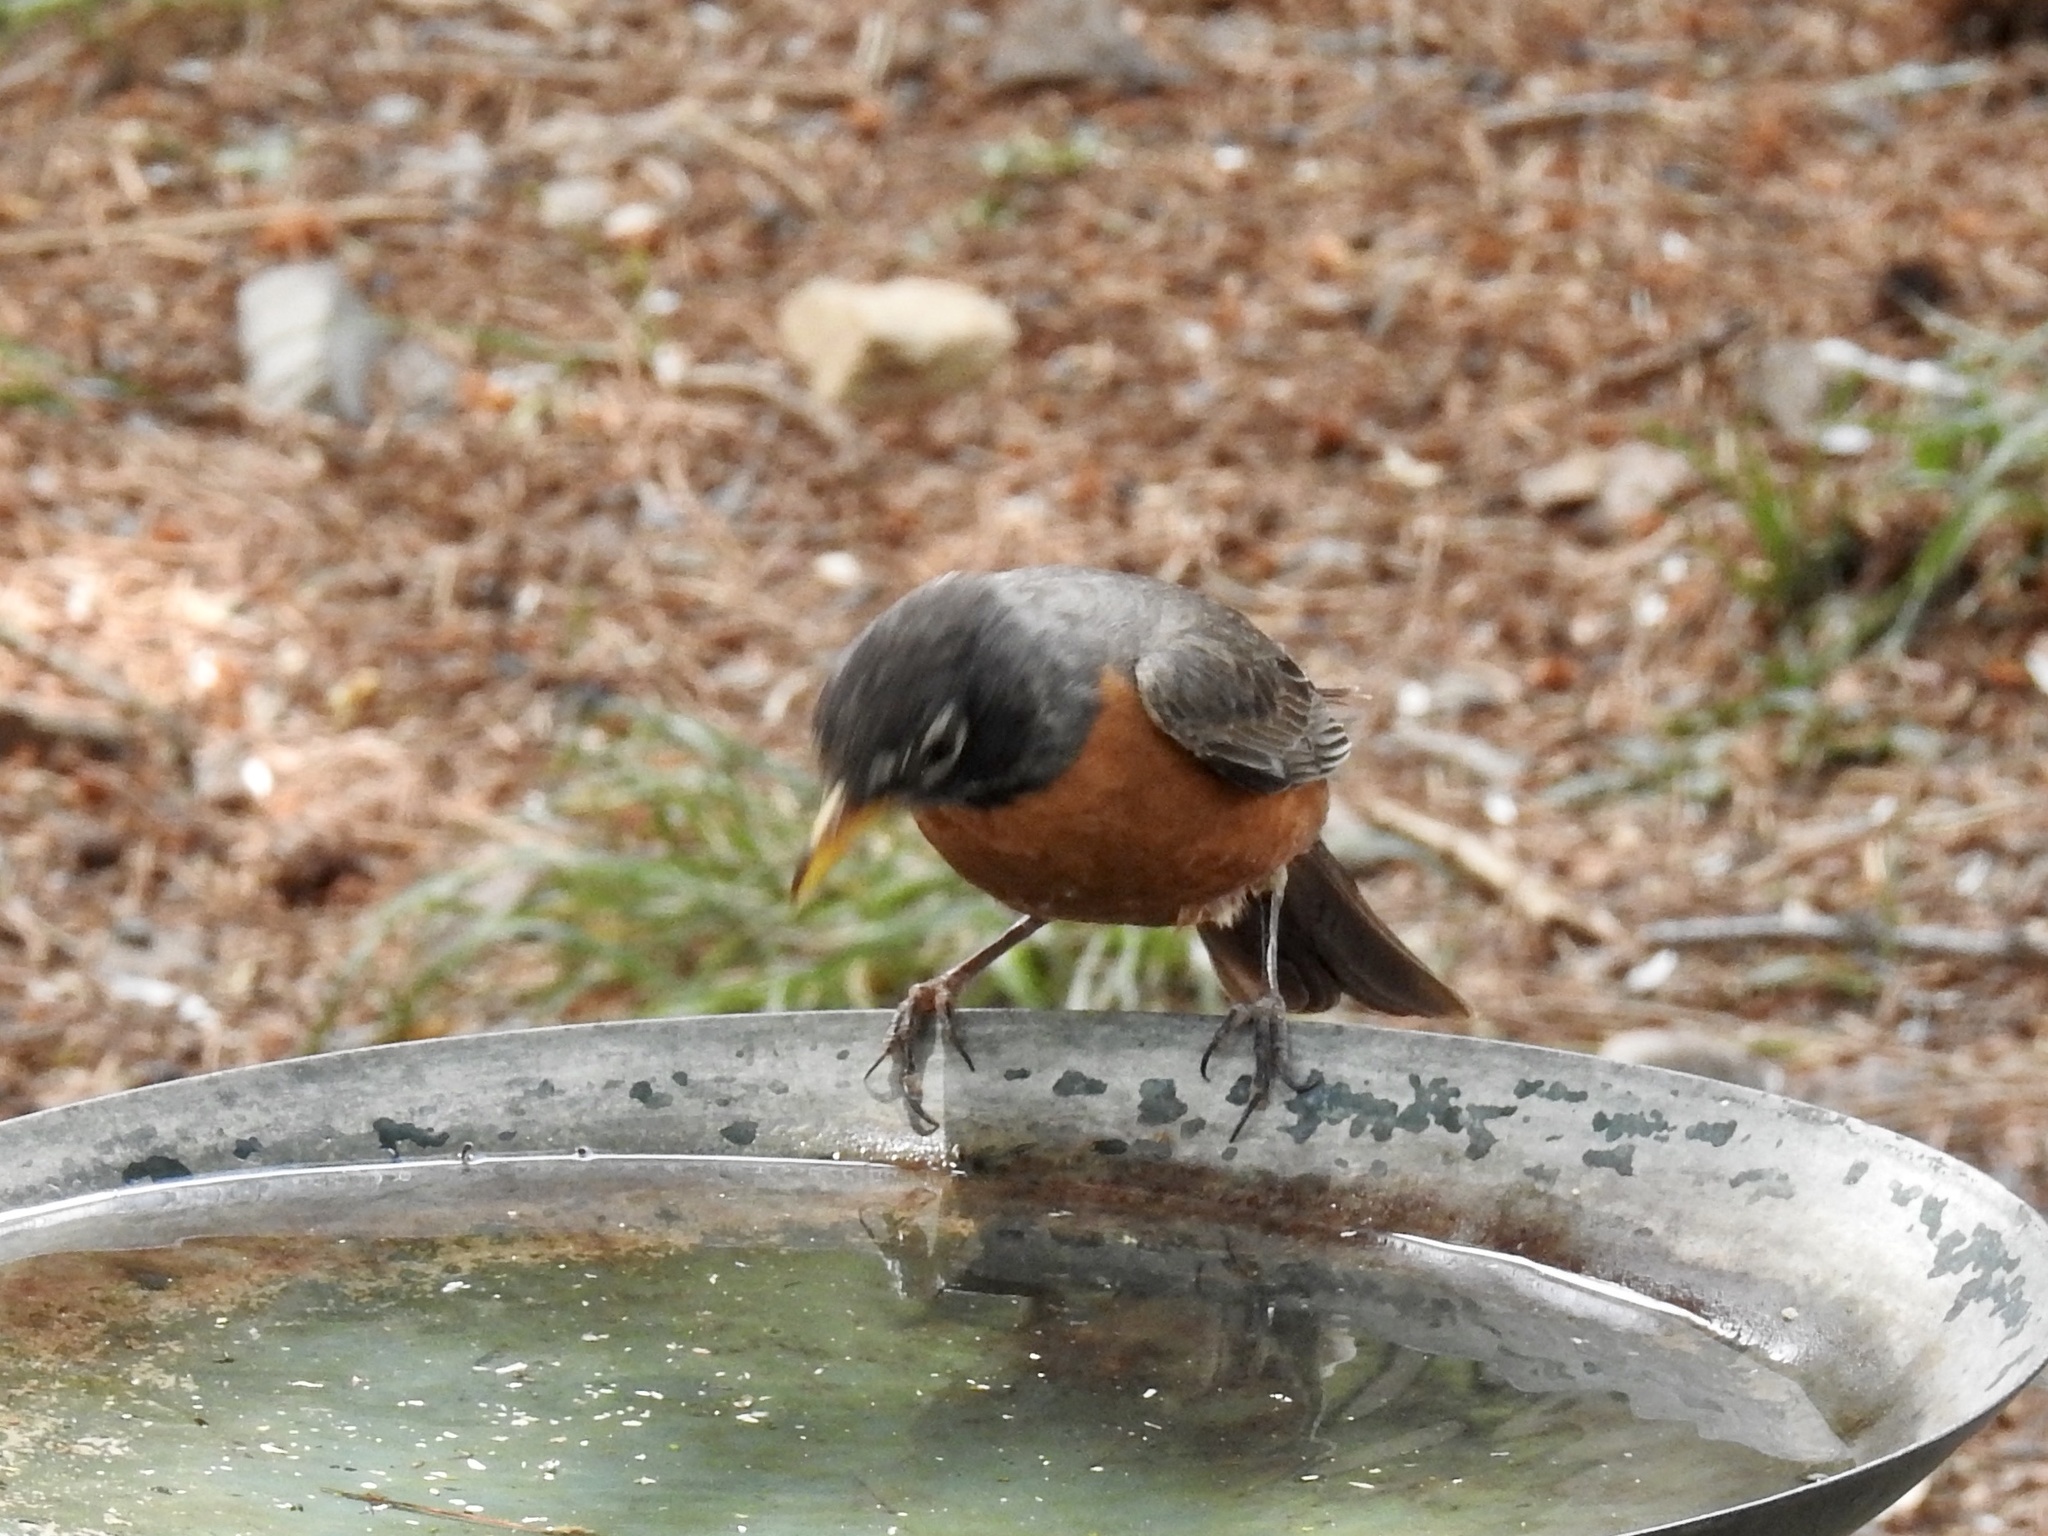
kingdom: Animalia
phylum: Chordata
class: Aves
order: Passeriformes
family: Turdidae
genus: Turdus
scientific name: Turdus migratorius
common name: American robin
